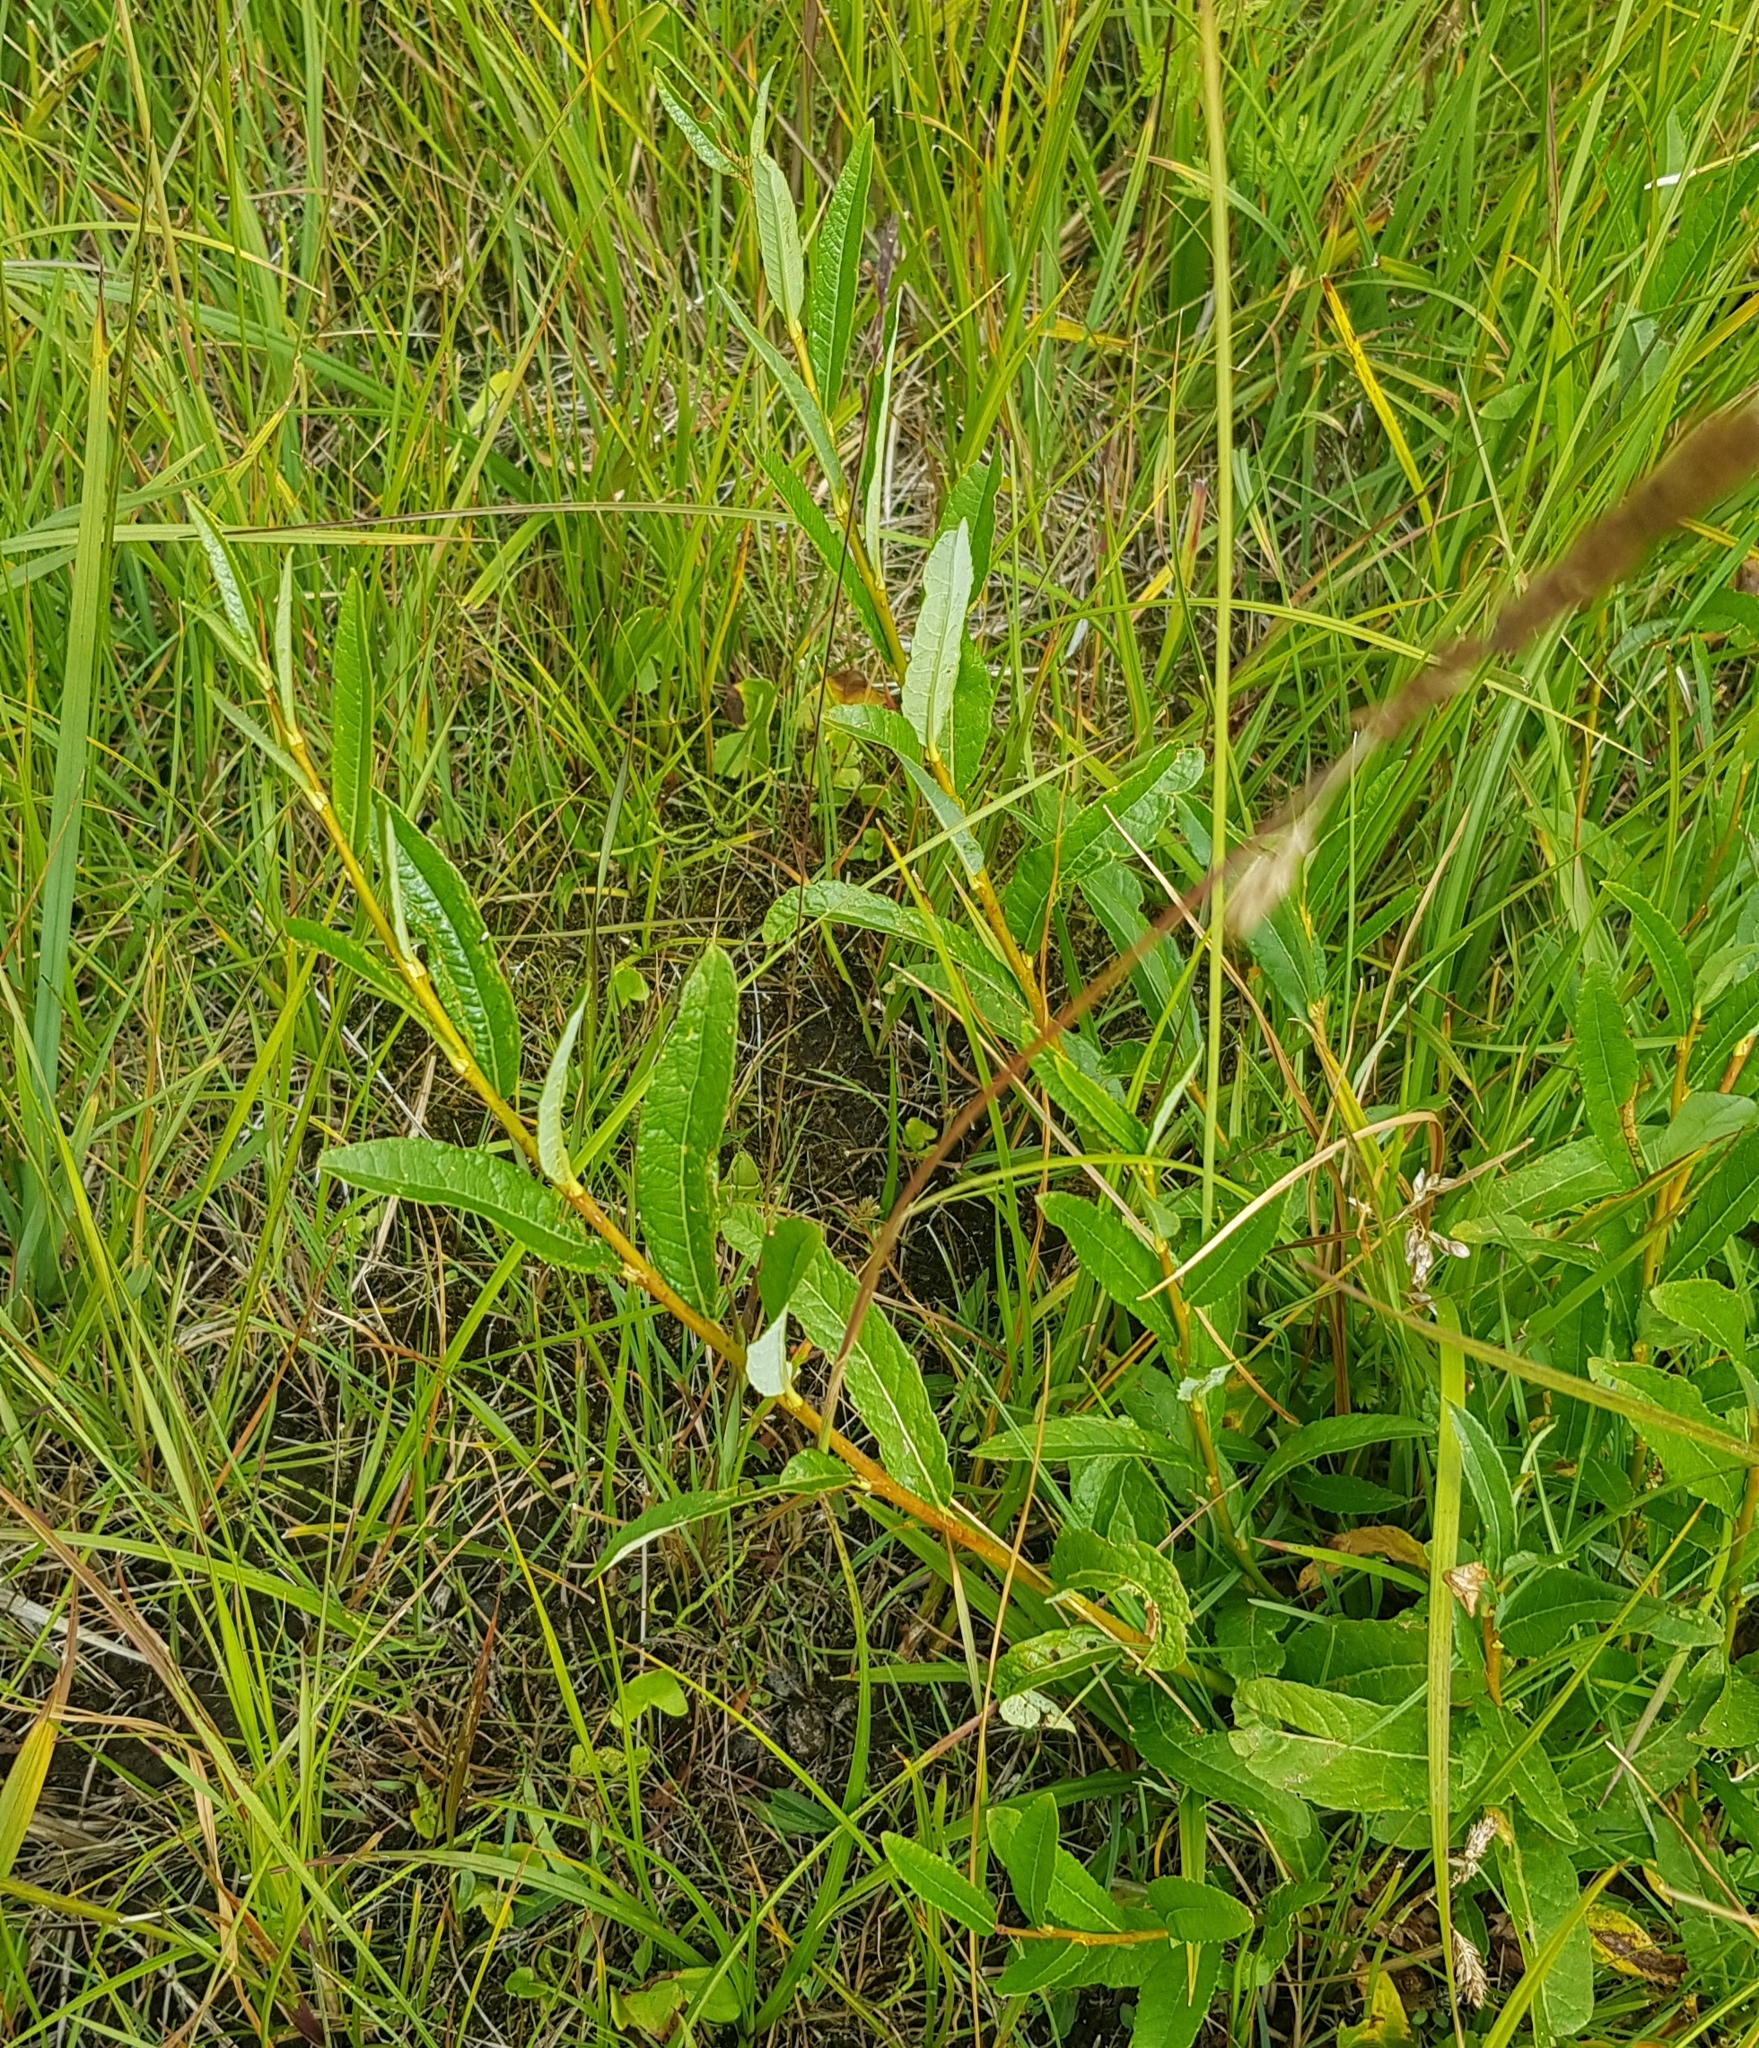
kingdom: Plantae
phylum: Tracheophyta
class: Magnoliopsida
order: Malpighiales
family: Salicaceae
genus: Salix
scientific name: Salix divaricata
